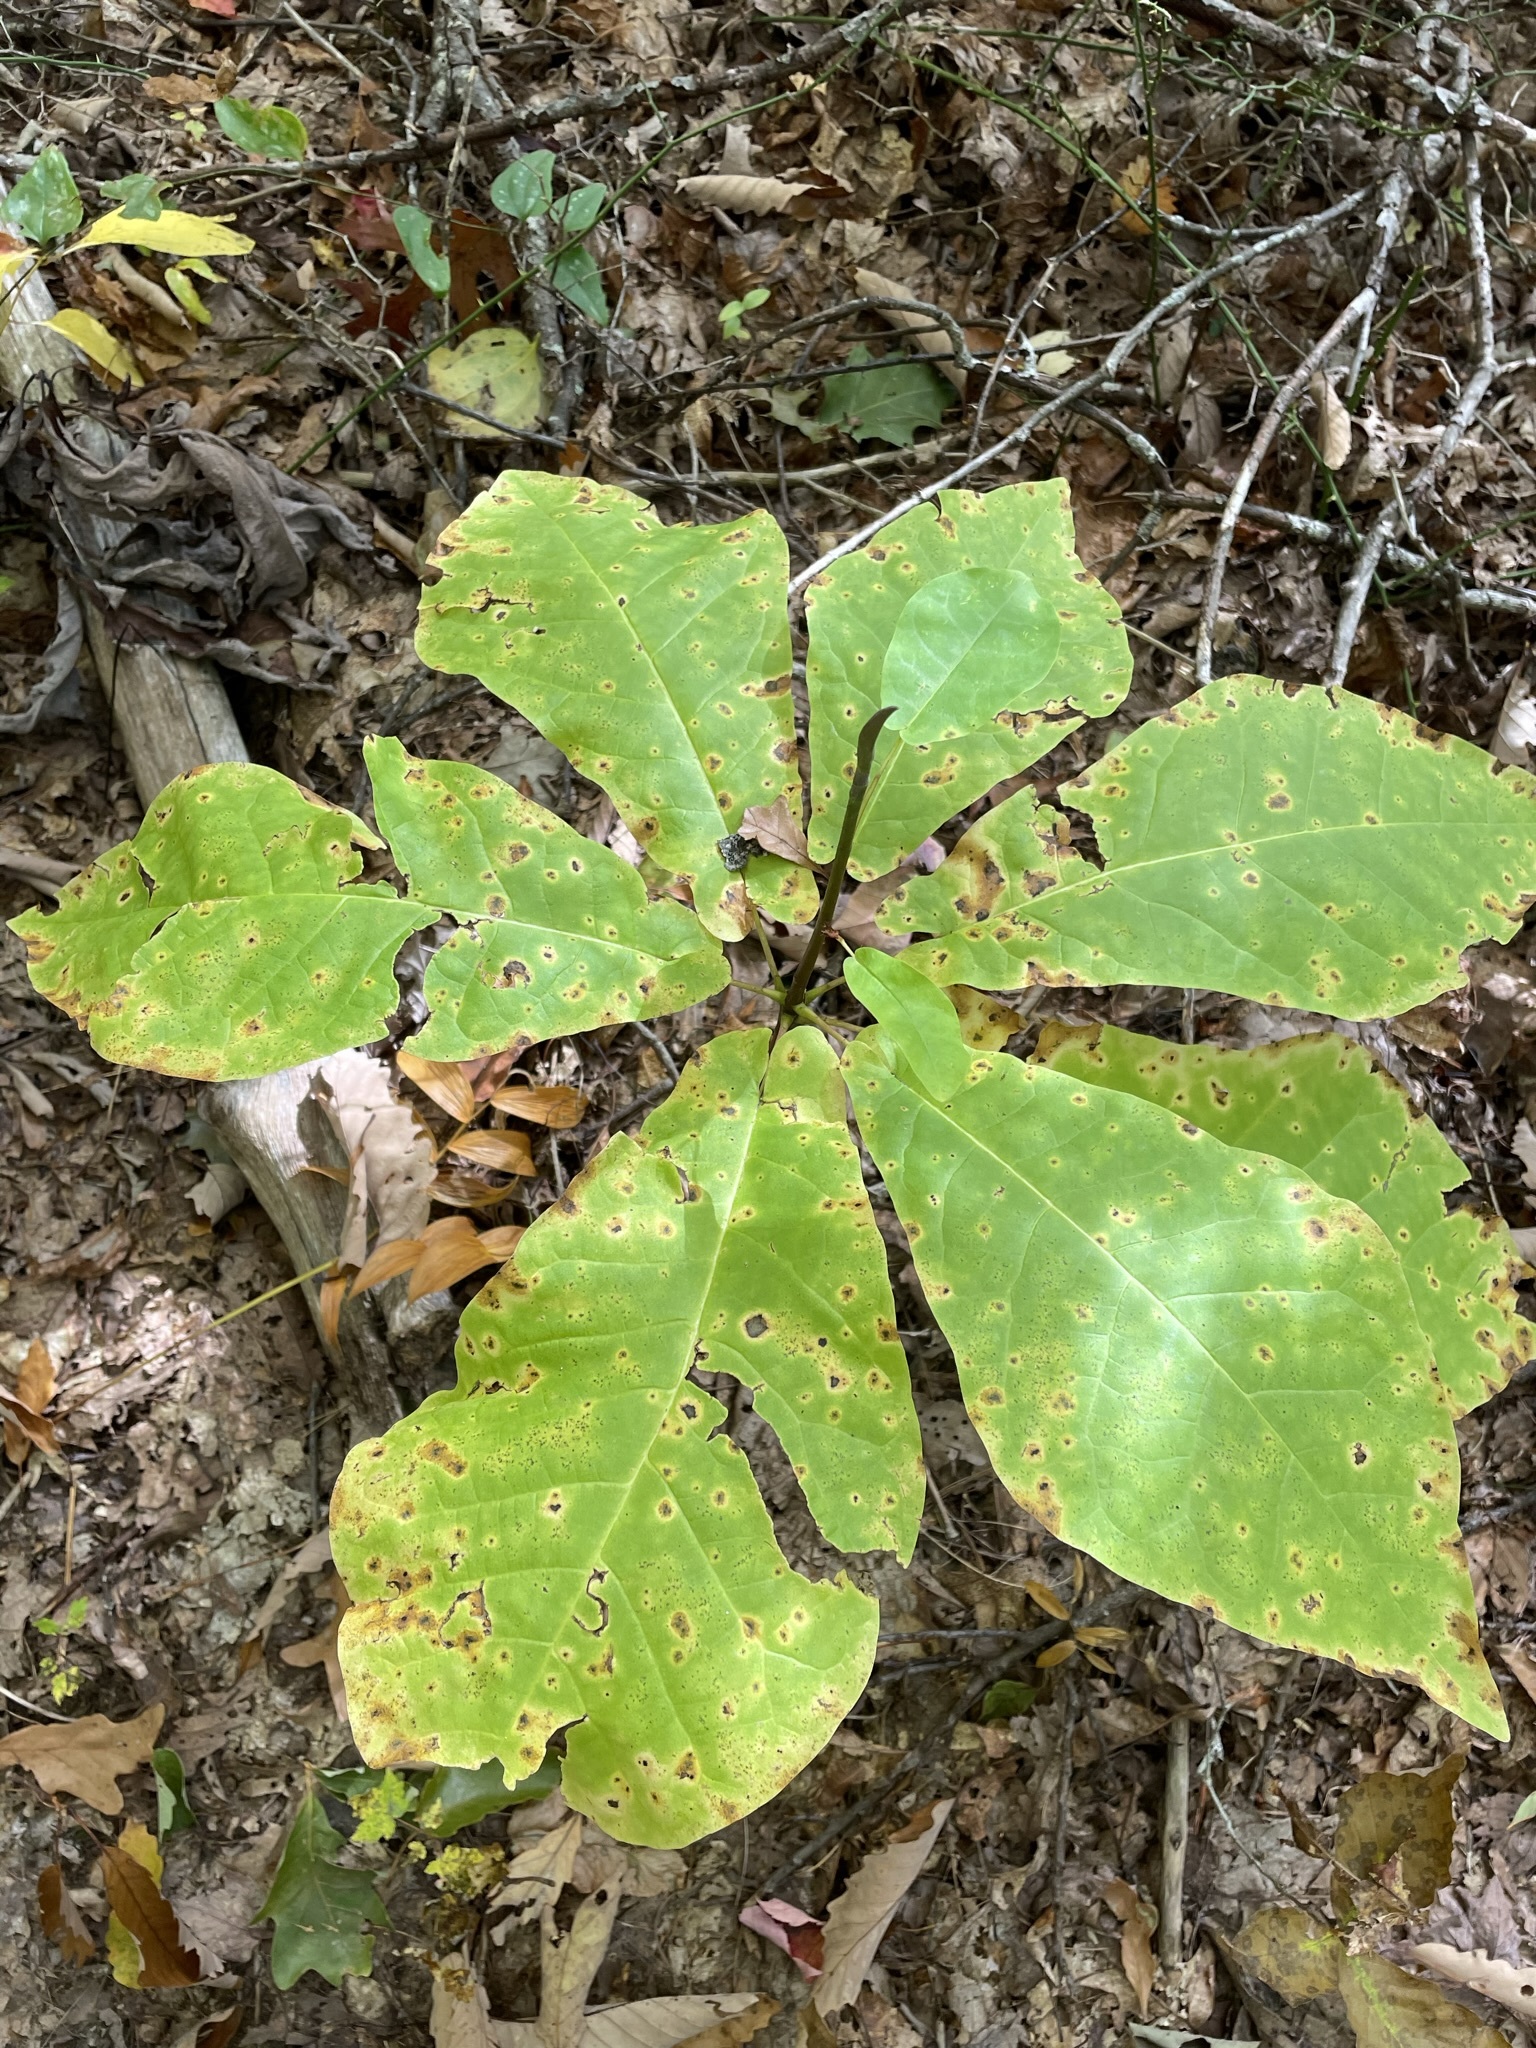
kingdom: Plantae
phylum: Tracheophyta
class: Magnoliopsida
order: Magnoliales
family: Magnoliaceae
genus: Magnolia
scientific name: Magnolia fraseri
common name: Fraser's magnolia
